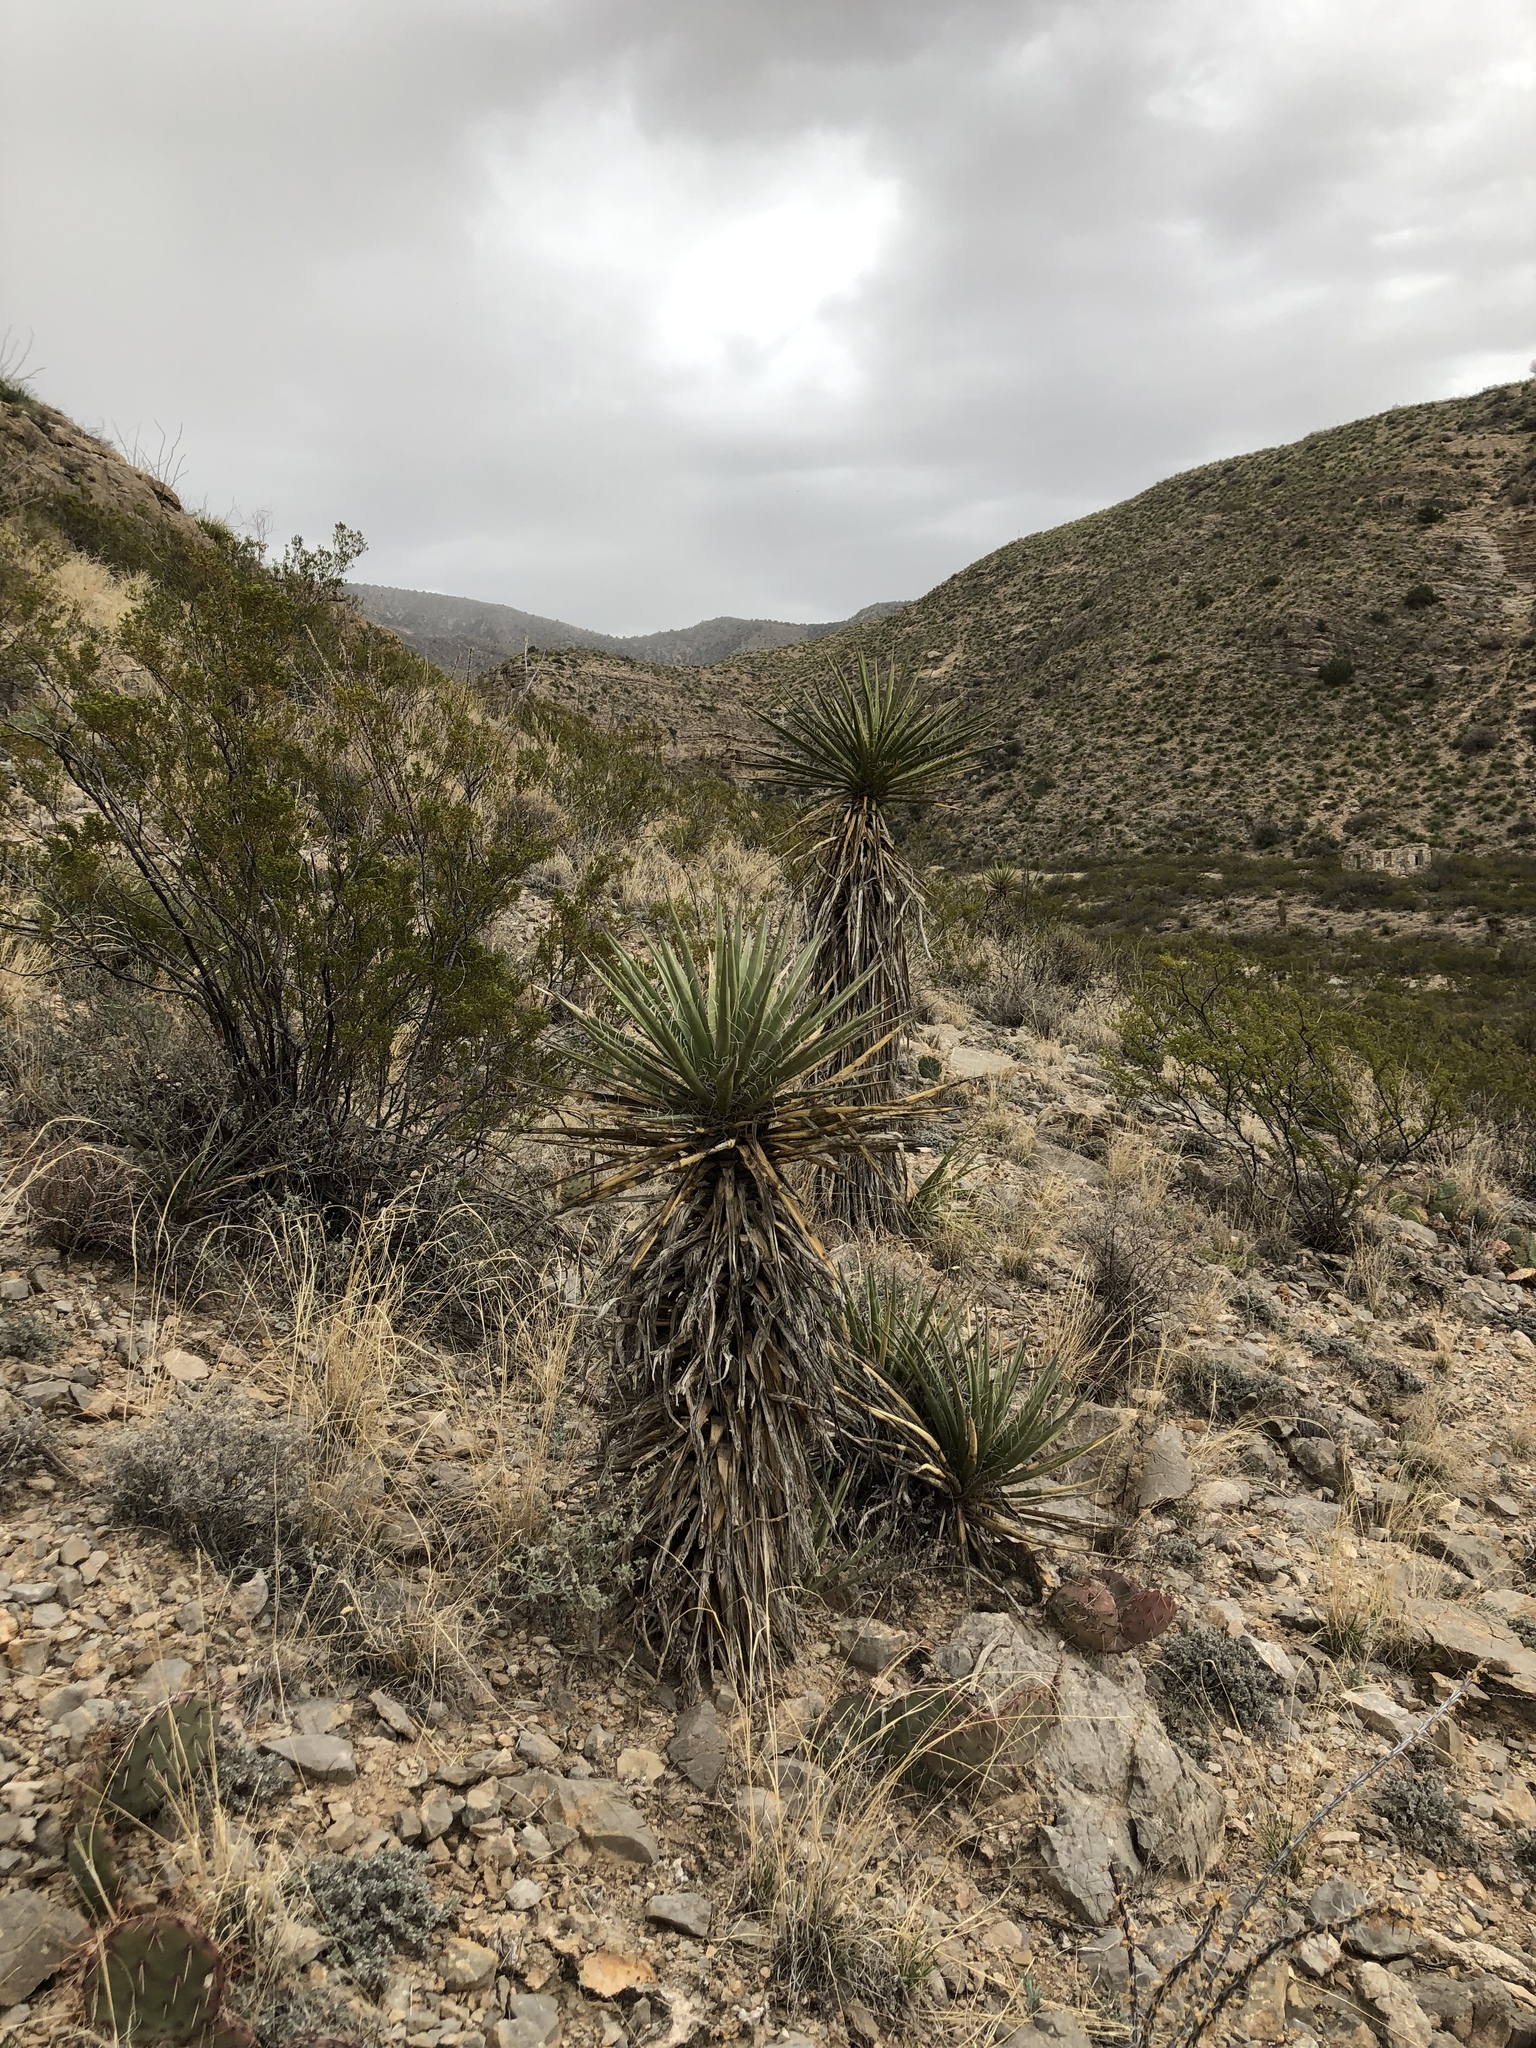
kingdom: Plantae
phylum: Tracheophyta
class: Liliopsida
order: Asparagales
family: Asparagaceae
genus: Yucca
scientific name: Yucca treculiana
